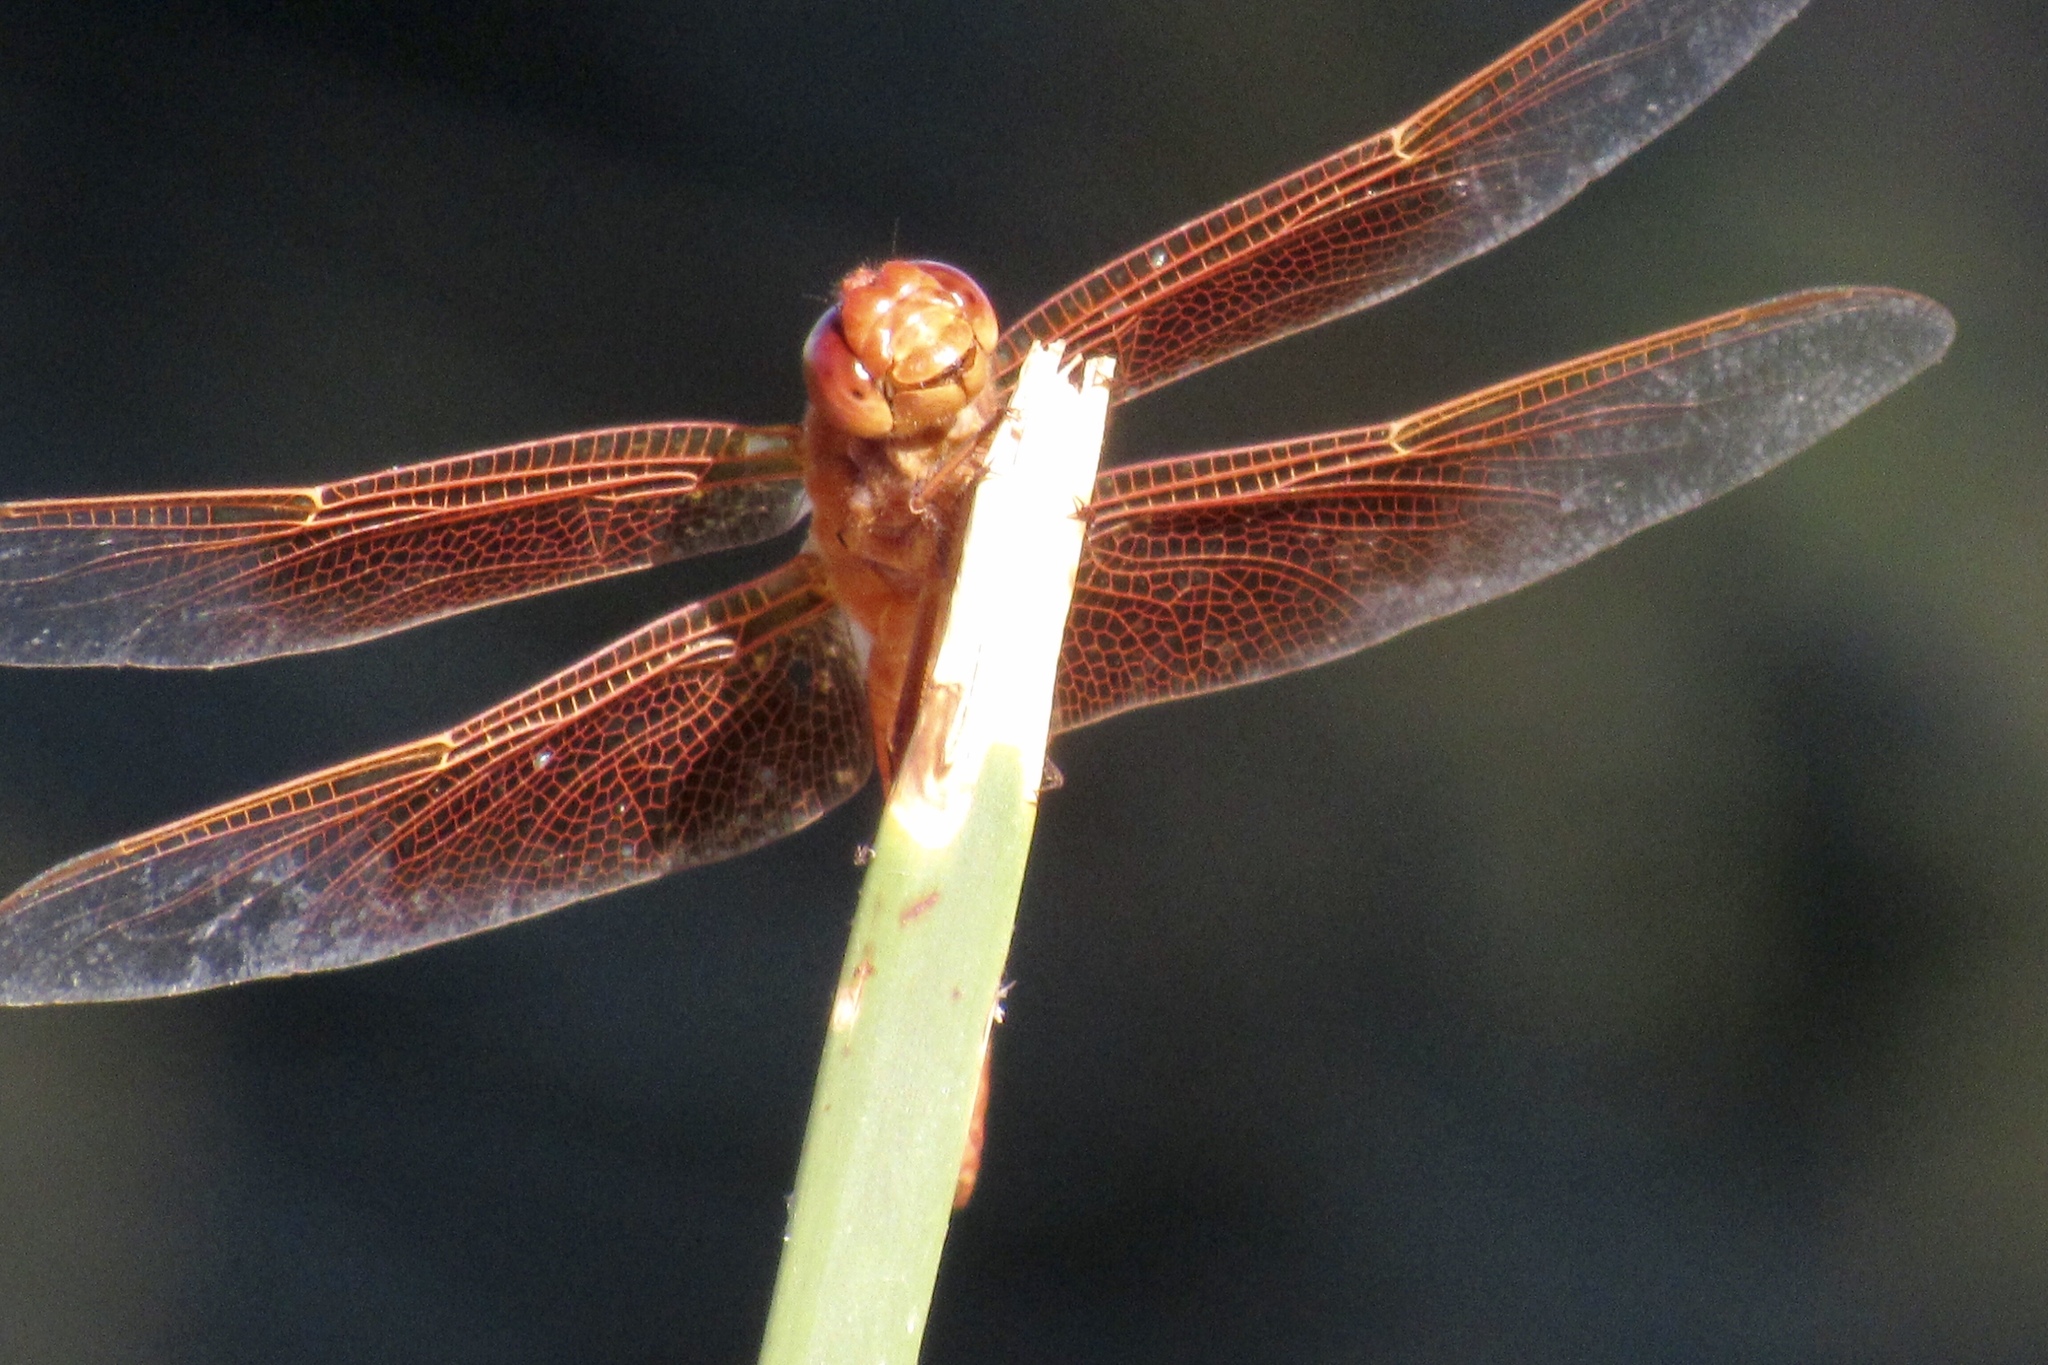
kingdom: Animalia
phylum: Arthropoda
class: Insecta
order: Odonata
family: Libellulidae
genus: Libellula
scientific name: Libellula saturata
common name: Flame skimmer
